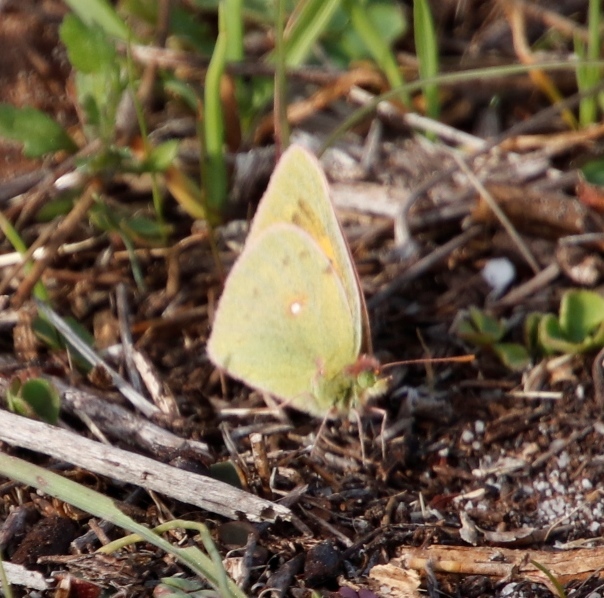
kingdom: Animalia
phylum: Arthropoda
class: Insecta
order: Lepidoptera
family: Pieridae
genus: Colias
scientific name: Colias electo
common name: African clouded yellow
